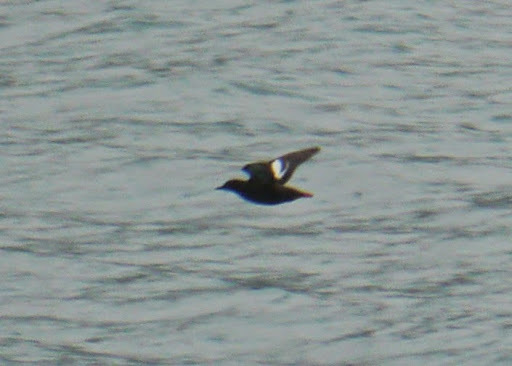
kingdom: Animalia
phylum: Chordata
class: Aves
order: Charadriiformes
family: Alcidae
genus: Cepphus
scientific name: Cepphus columba
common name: Pigeon guillemot
